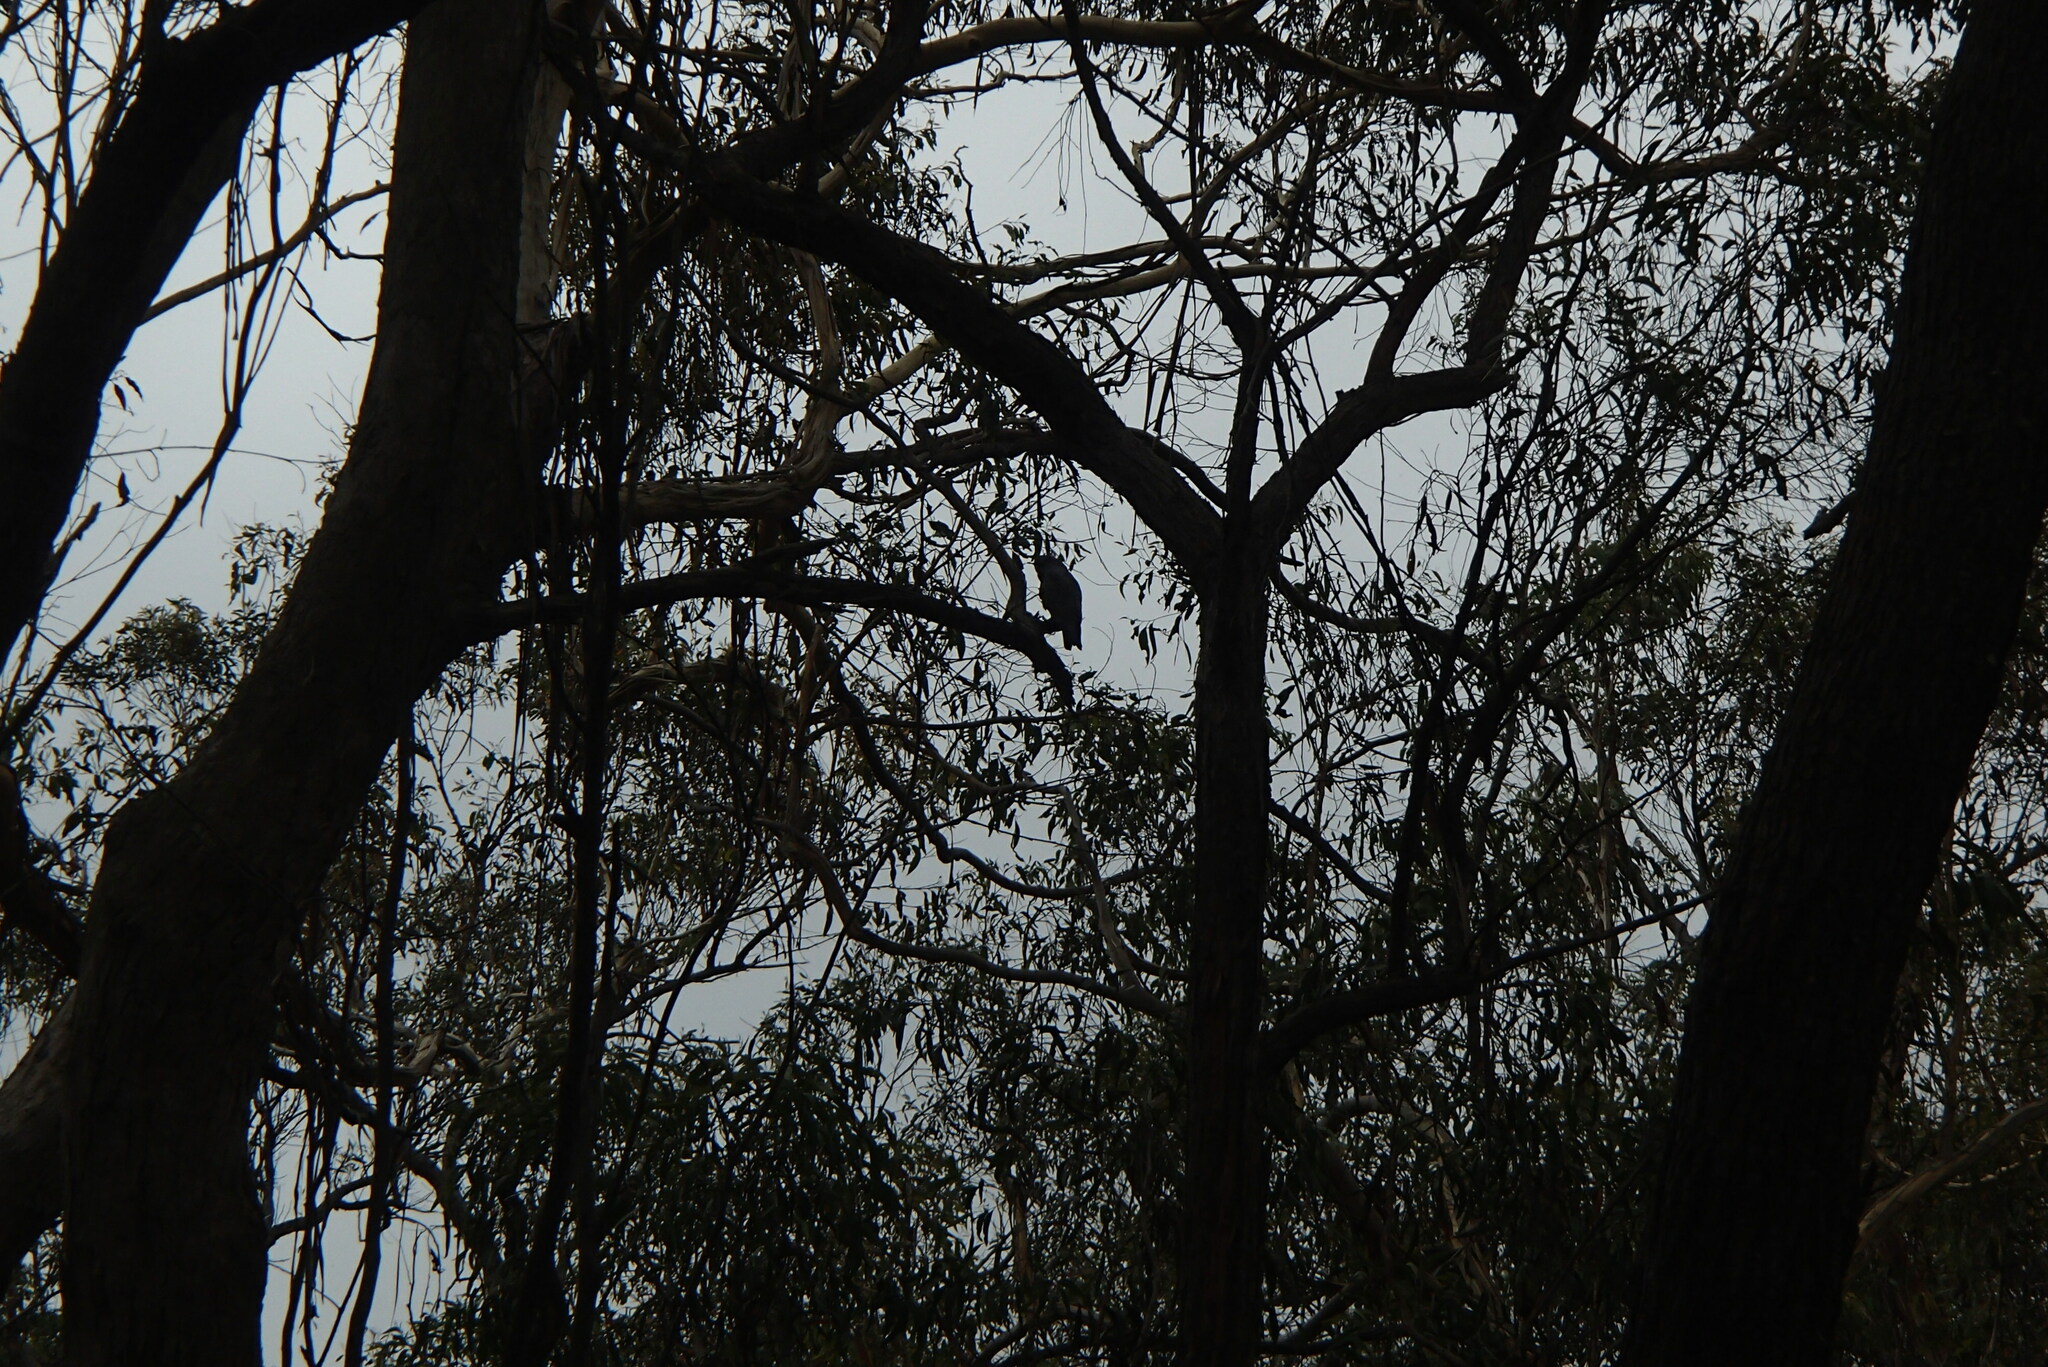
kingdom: Animalia
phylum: Chordata
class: Aves
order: Psittaciformes
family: Psittacidae
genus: Callocephalon
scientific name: Callocephalon fimbriatum
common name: Gang-gang cockatoo
